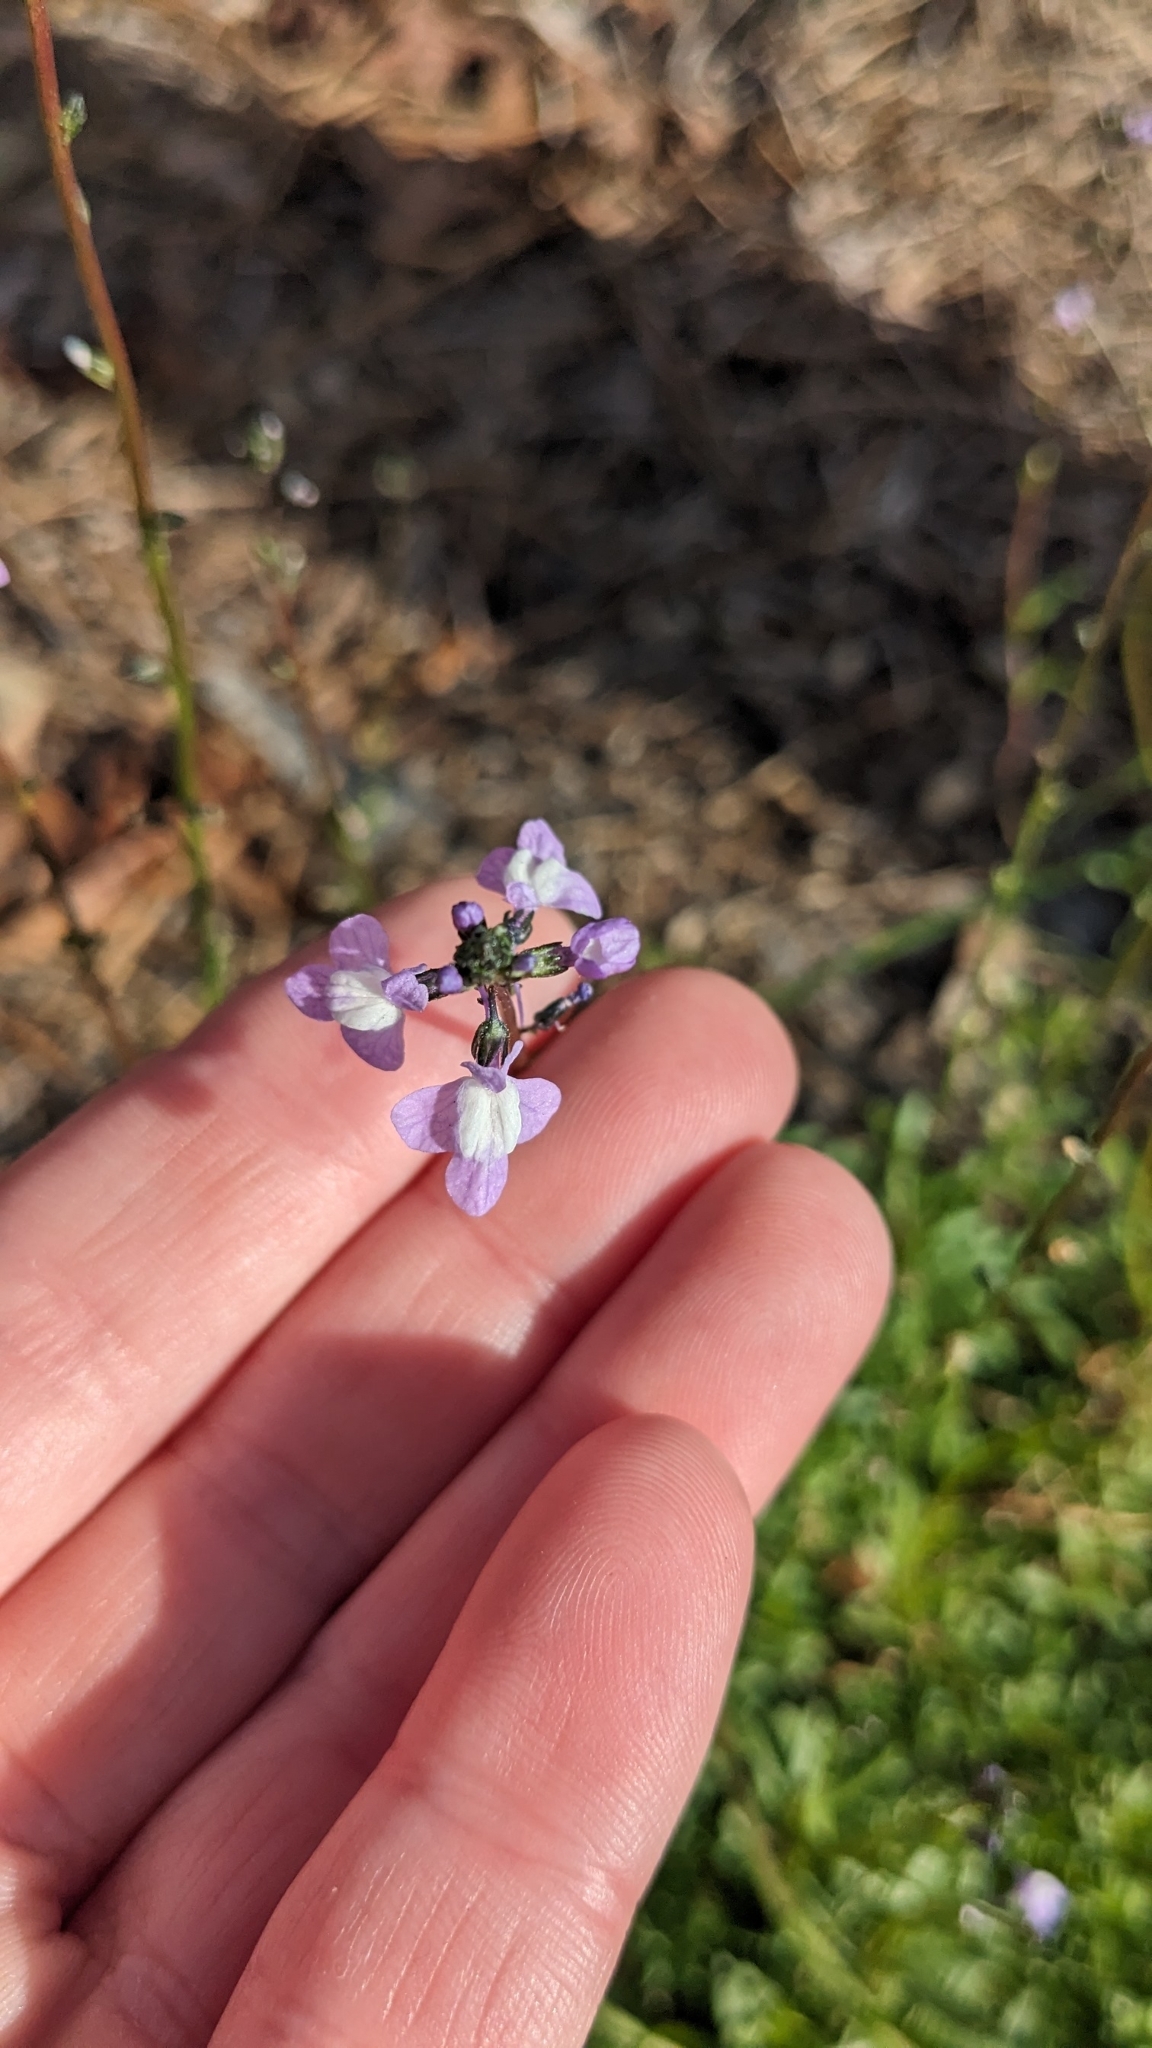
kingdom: Plantae
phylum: Tracheophyta
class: Magnoliopsida
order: Lamiales
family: Plantaginaceae
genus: Nuttallanthus
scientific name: Nuttallanthus canadensis
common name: Blue toadflax
